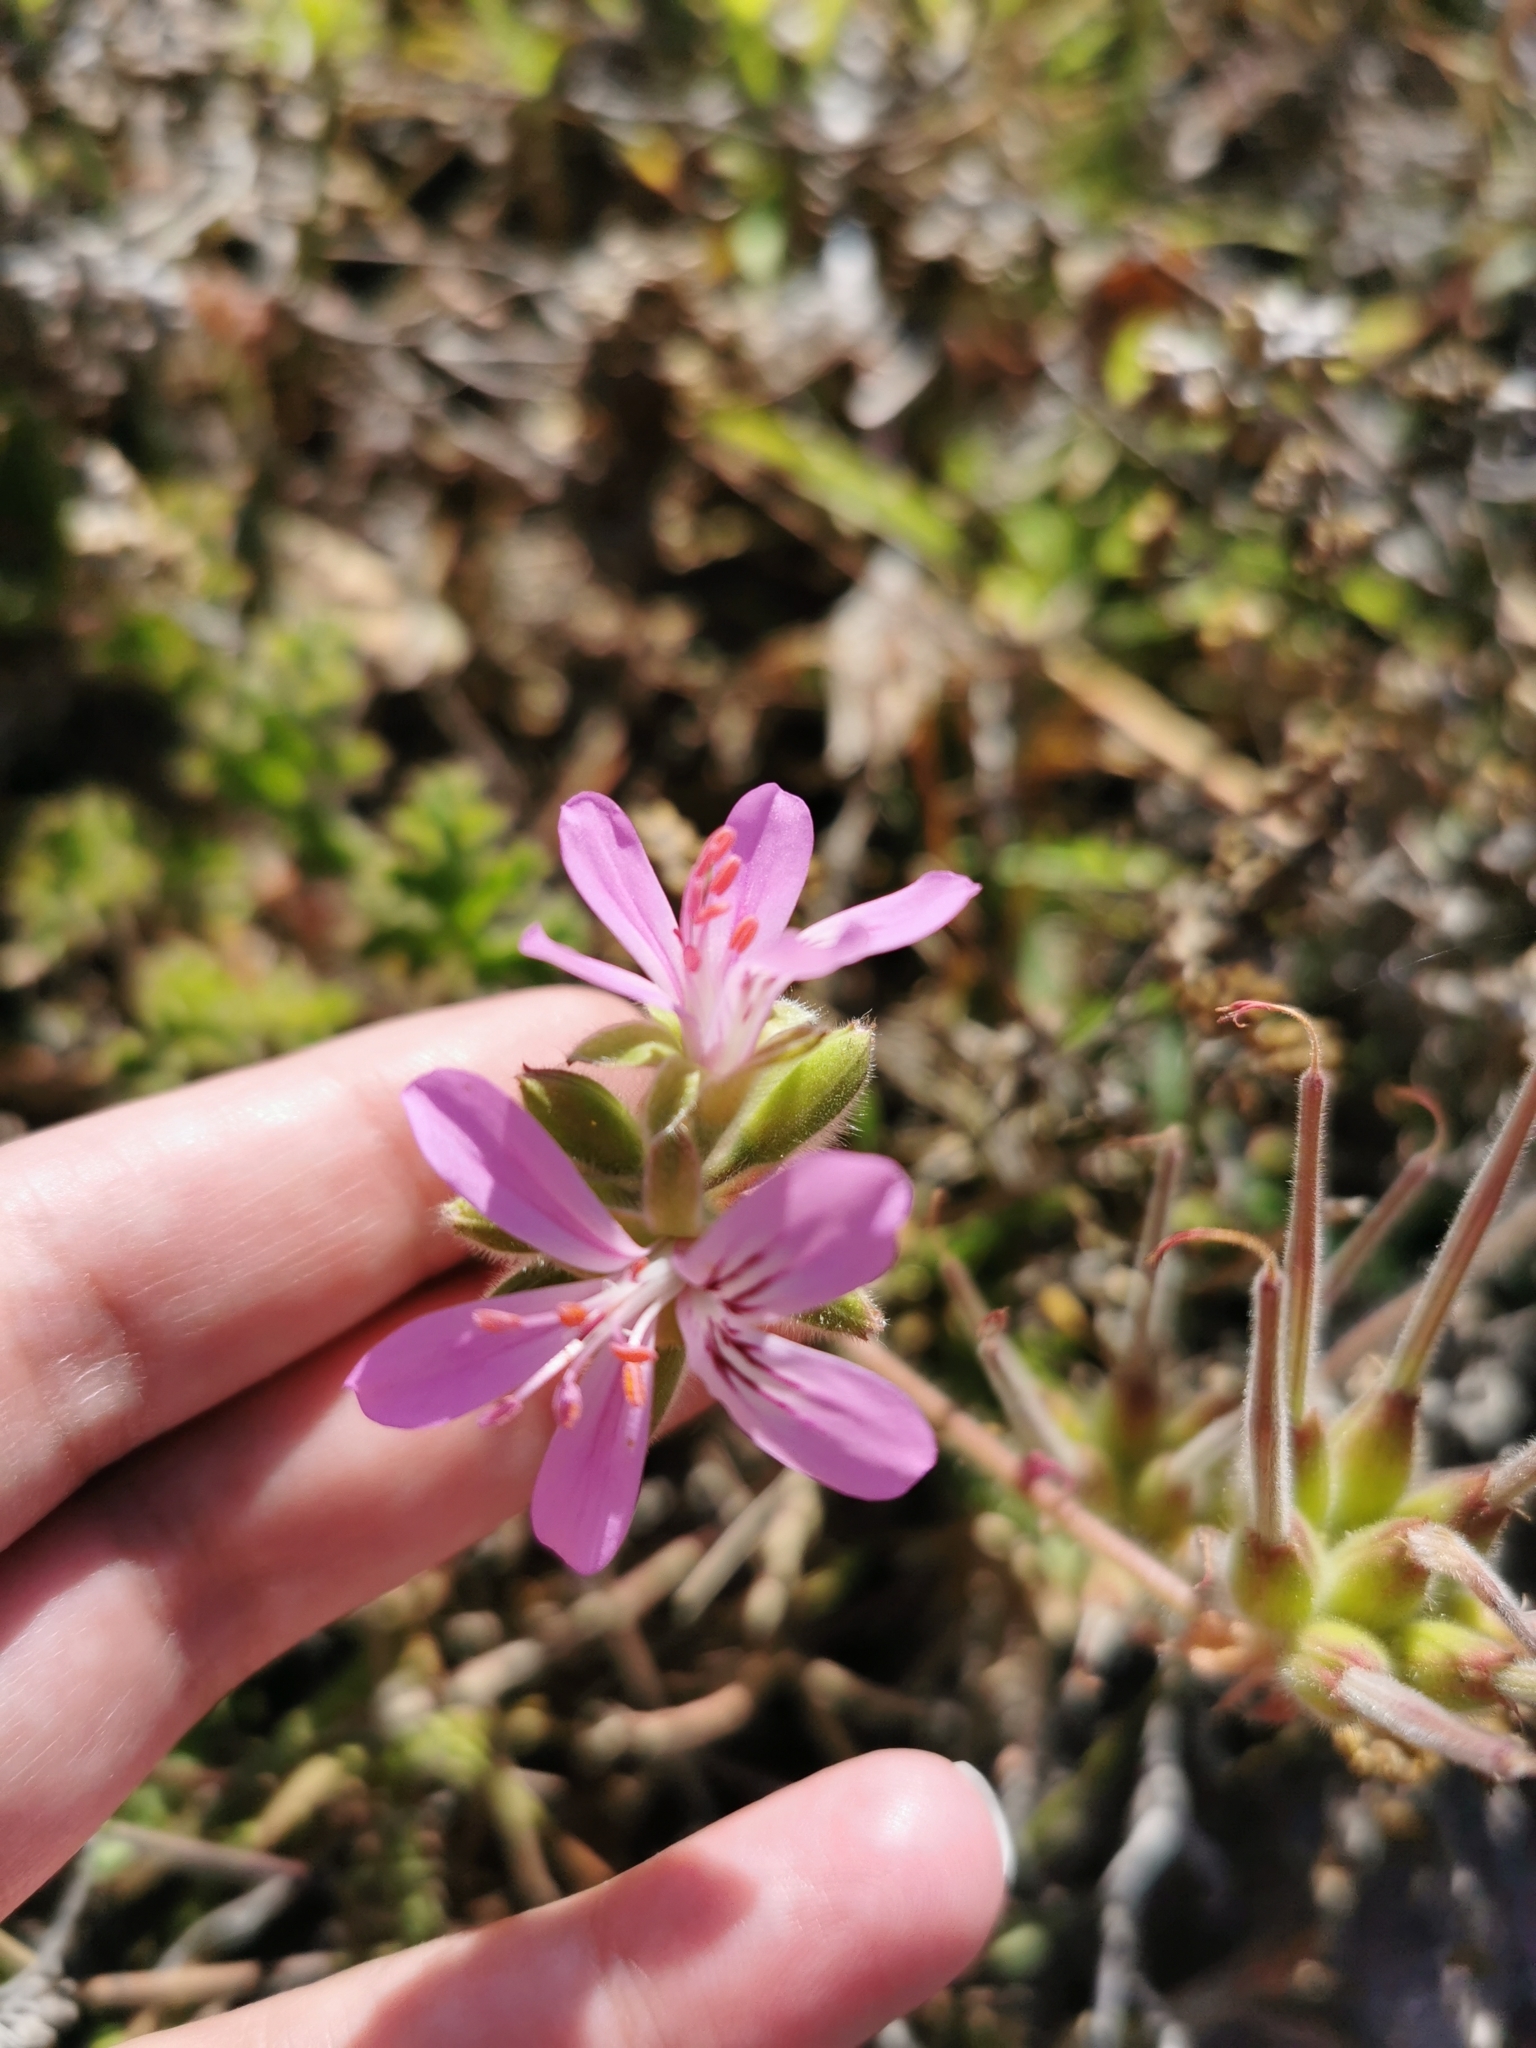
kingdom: Plantae
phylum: Tracheophyta
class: Magnoliopsida
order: Geraniales
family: Geraniaceae
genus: Pelargonium
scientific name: Pelargonium capitatum
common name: Rose scented geranium
